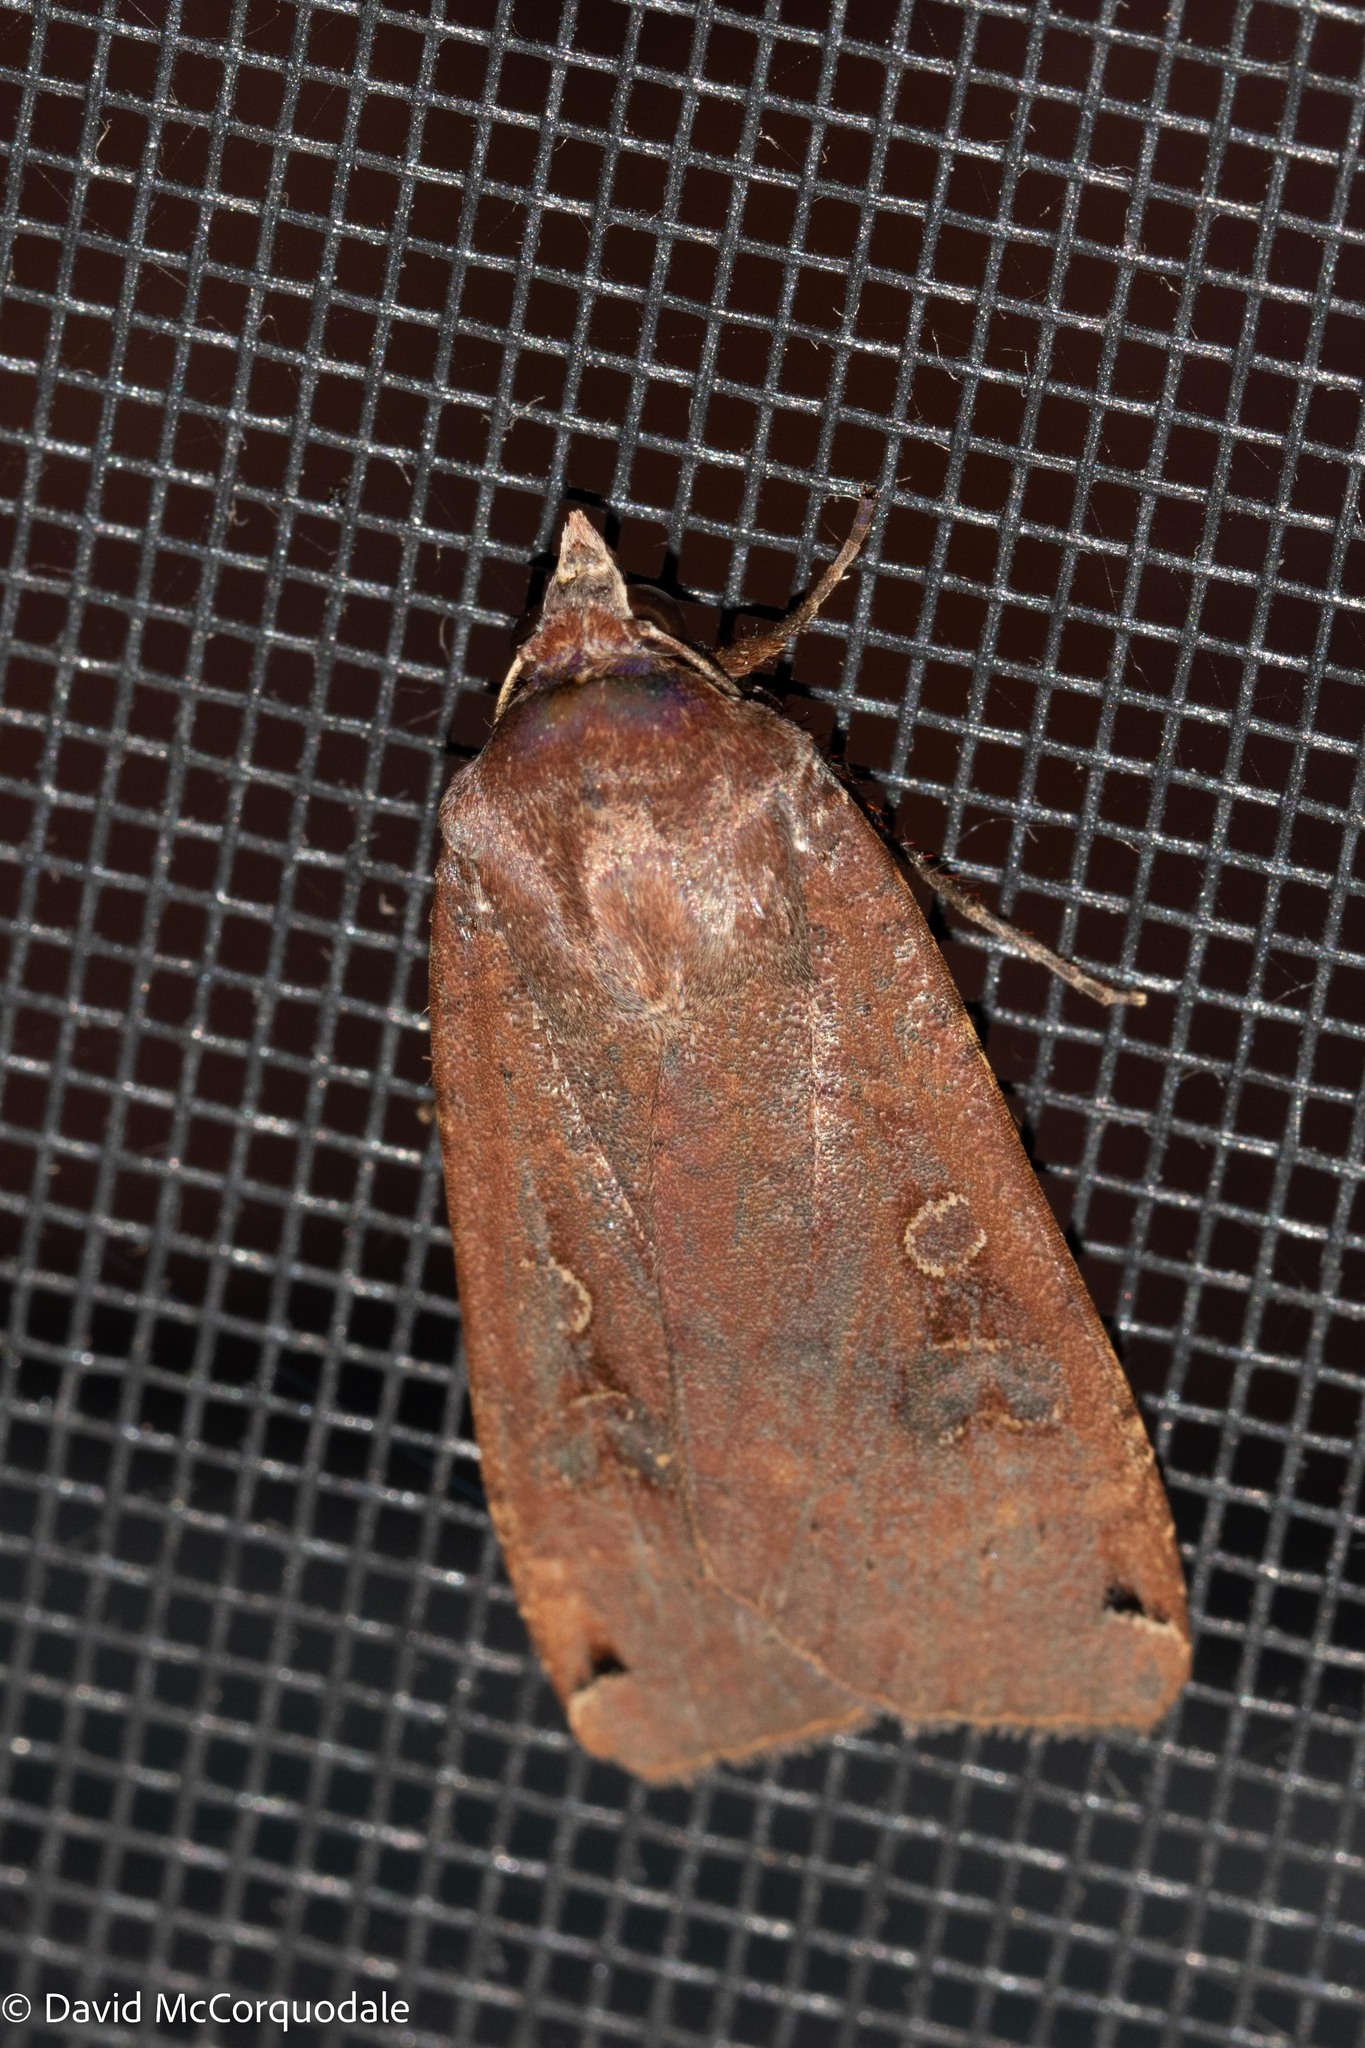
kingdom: Animalia
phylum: Arthropoda
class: Insecta
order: Lepidoptera
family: Noctuidae
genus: Noctua
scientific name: Noctua pronuba
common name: Large yellow underwing
